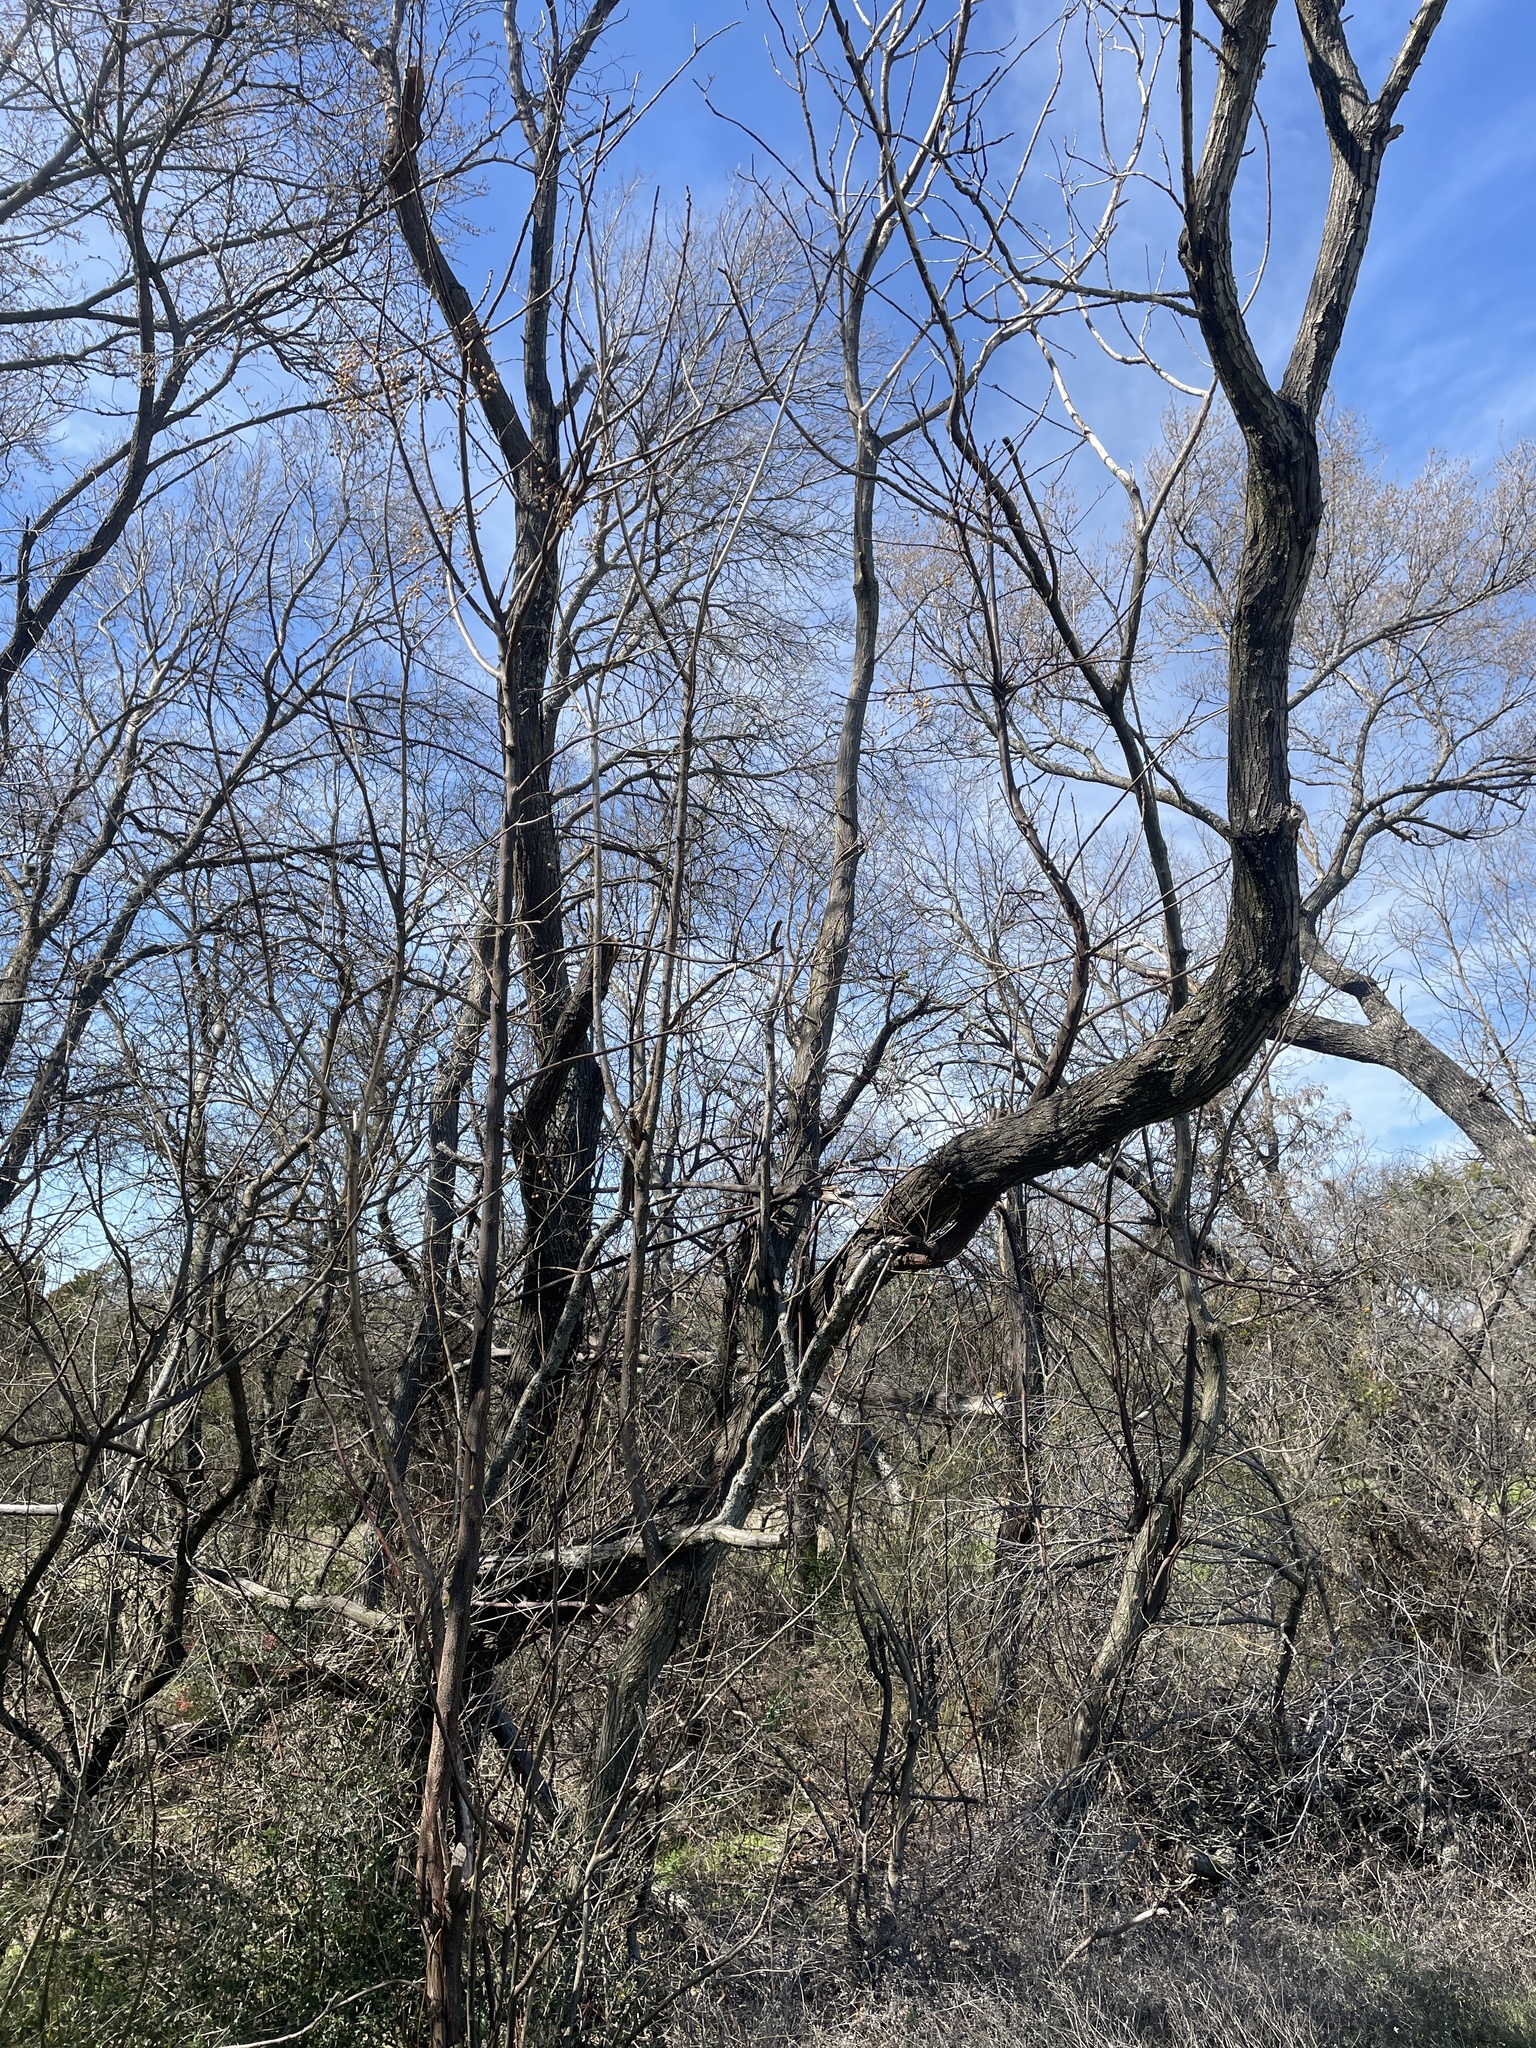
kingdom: Plantae
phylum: Tracheophyta
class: Magnoliopsida
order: Sapindales
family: Meliaceae
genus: Melia
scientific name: Melia azedarach
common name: Chinaberrytree
